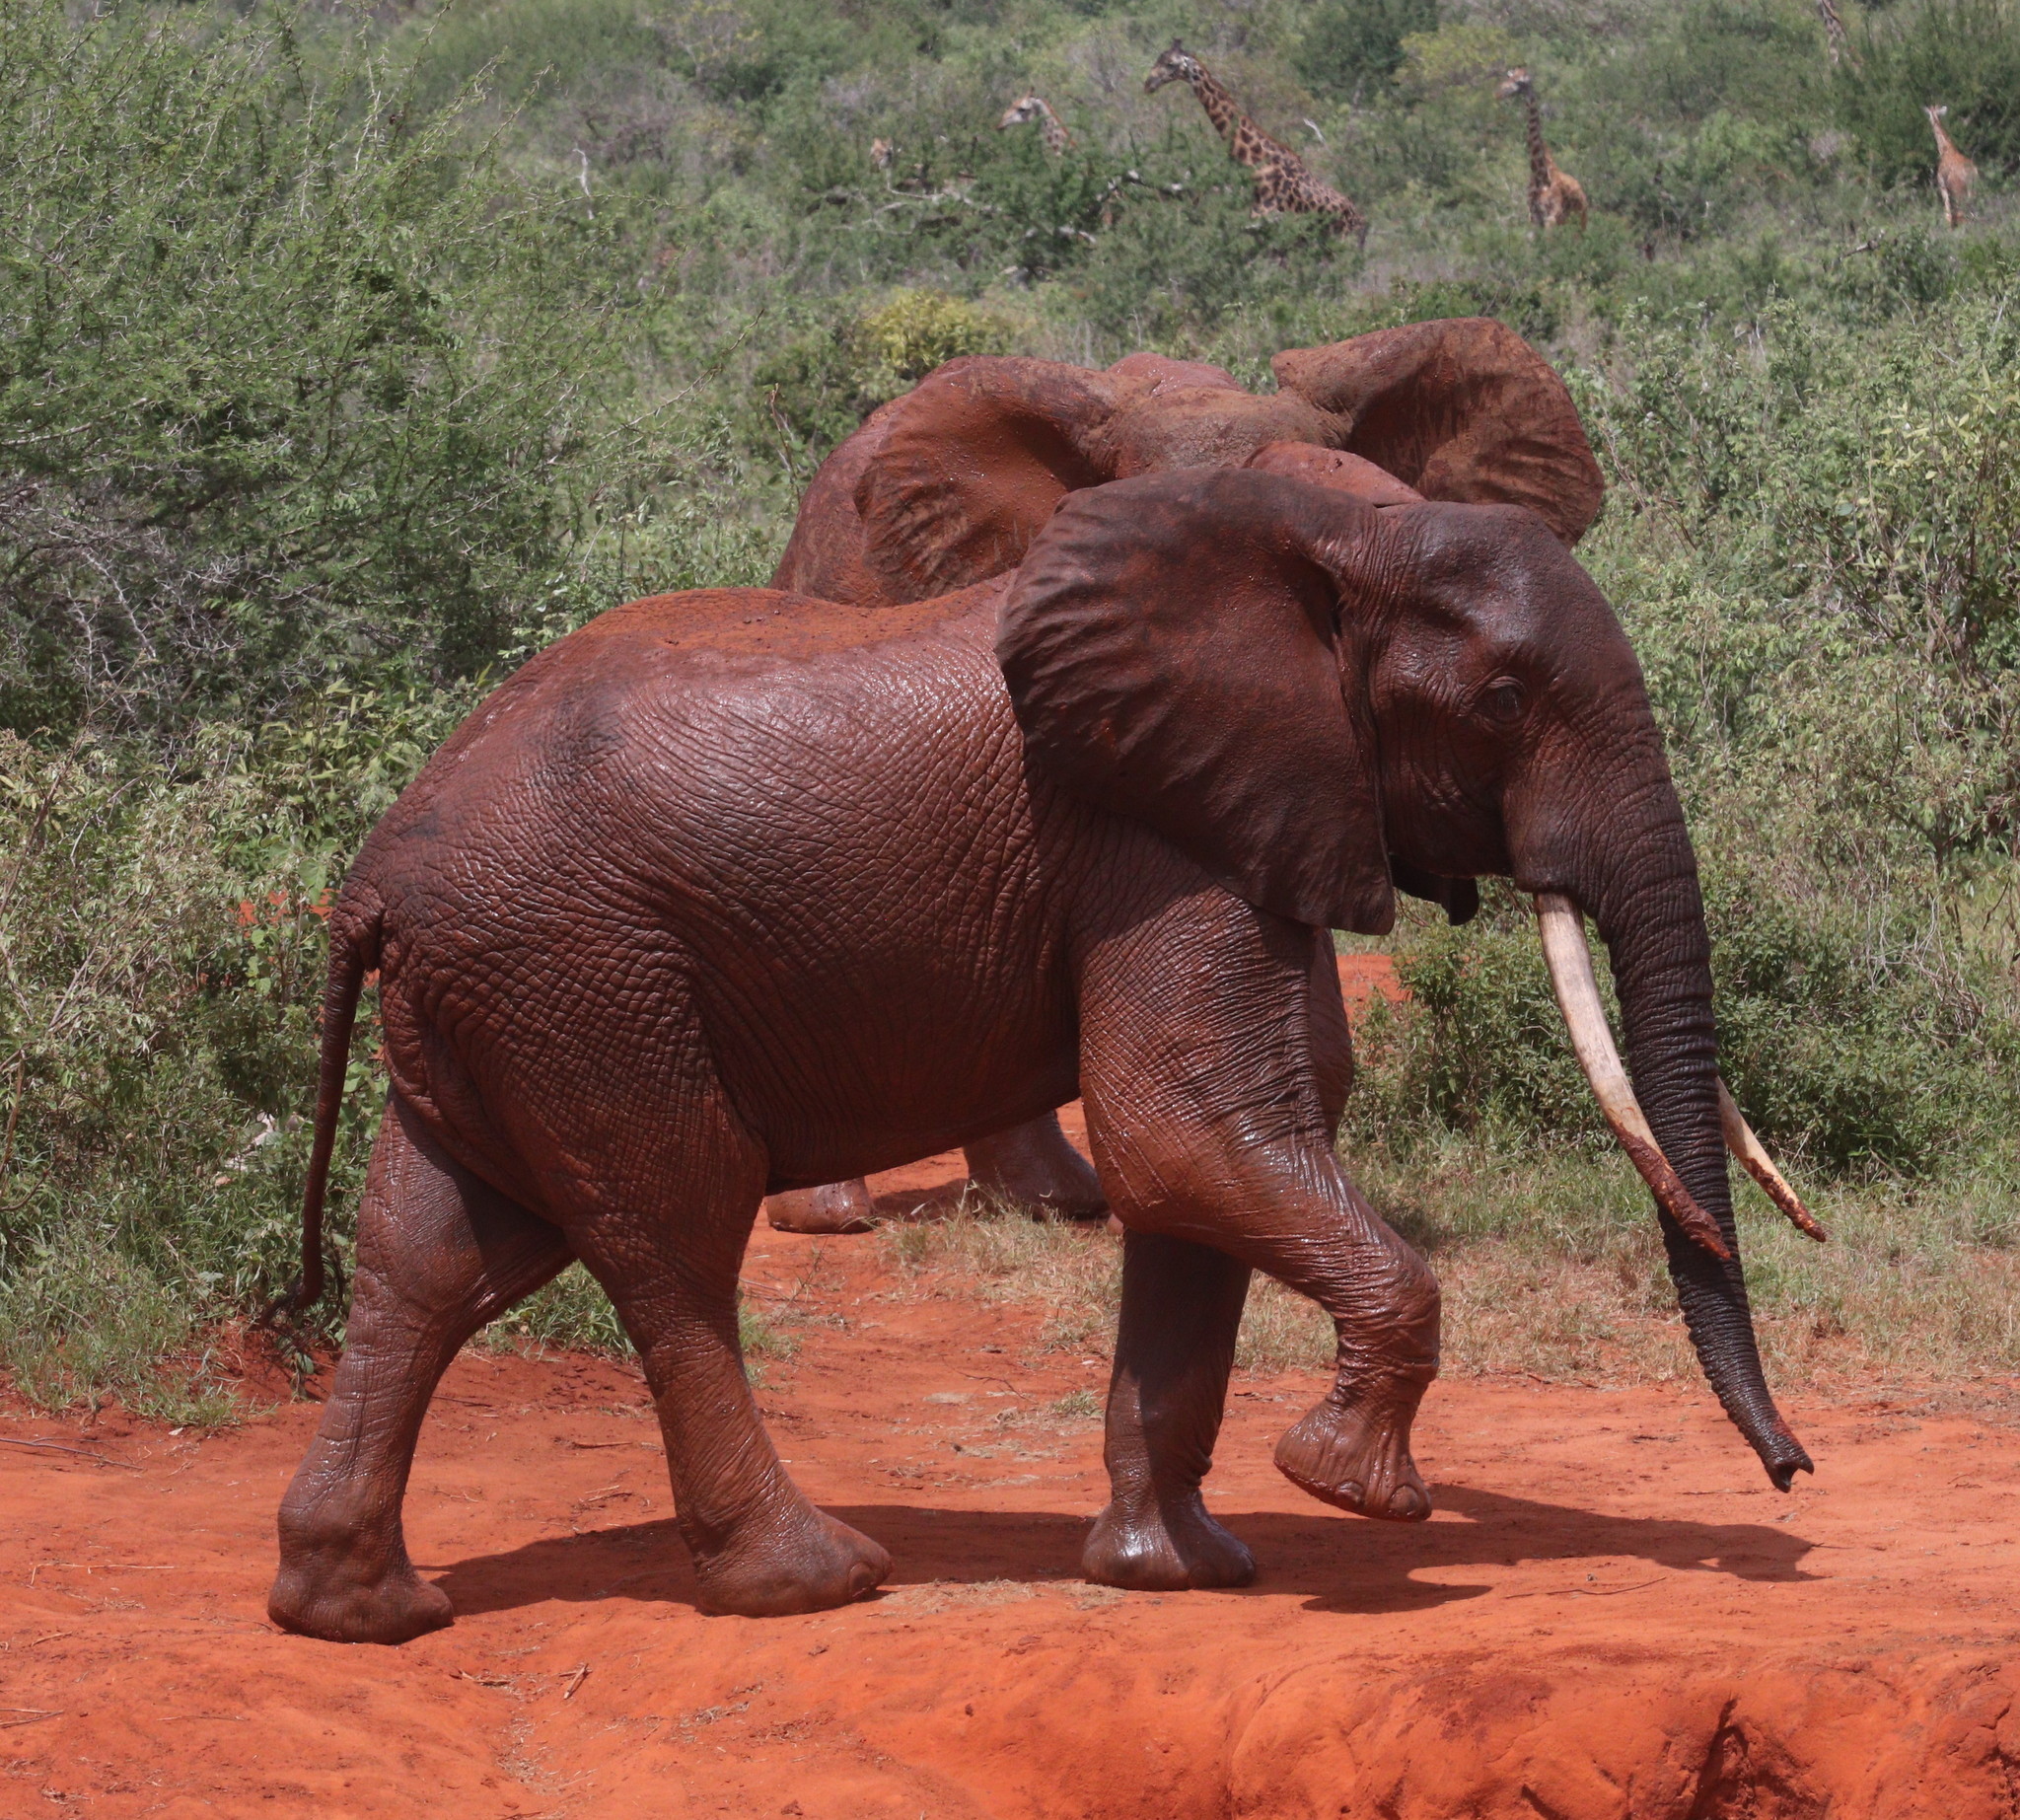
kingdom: Animalia
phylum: Chordata
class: Mammalia
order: Proboscidea
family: Elephantidae
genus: Loxodonta
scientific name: Loxodonta africana
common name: African elephant
